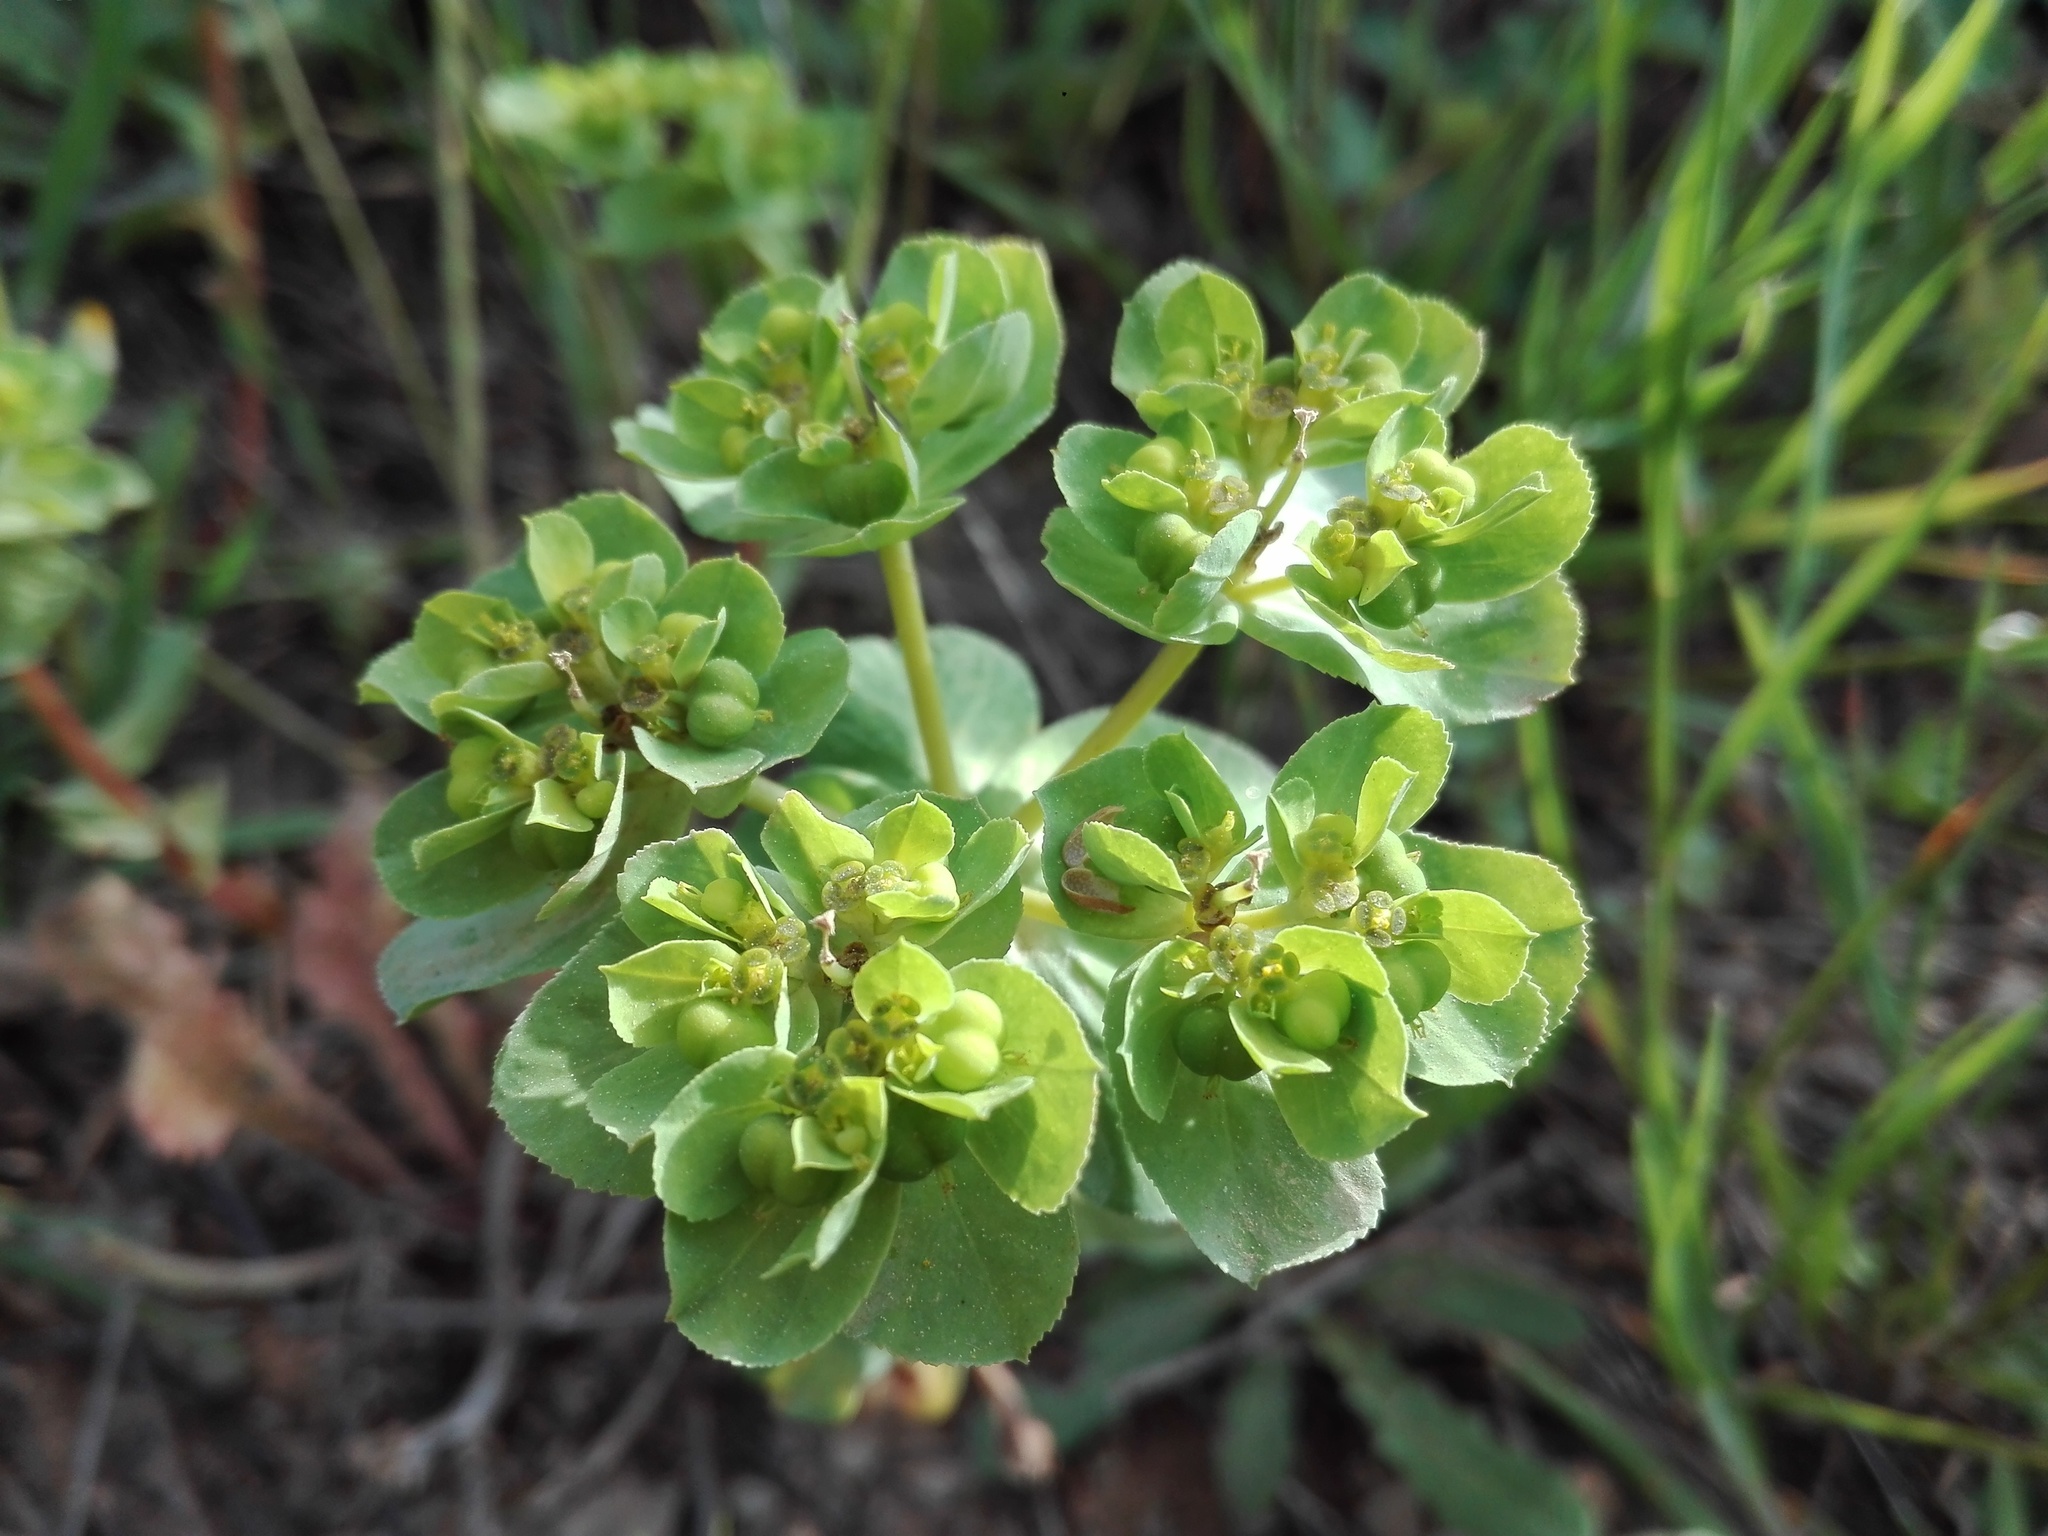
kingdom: Plantae
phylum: Tracheophyta
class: Magnoliopsida
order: Malpighiales
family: Euphorbiaceae
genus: Euphorbia
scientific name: Euphorbia helioscopia
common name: Sun spurge
